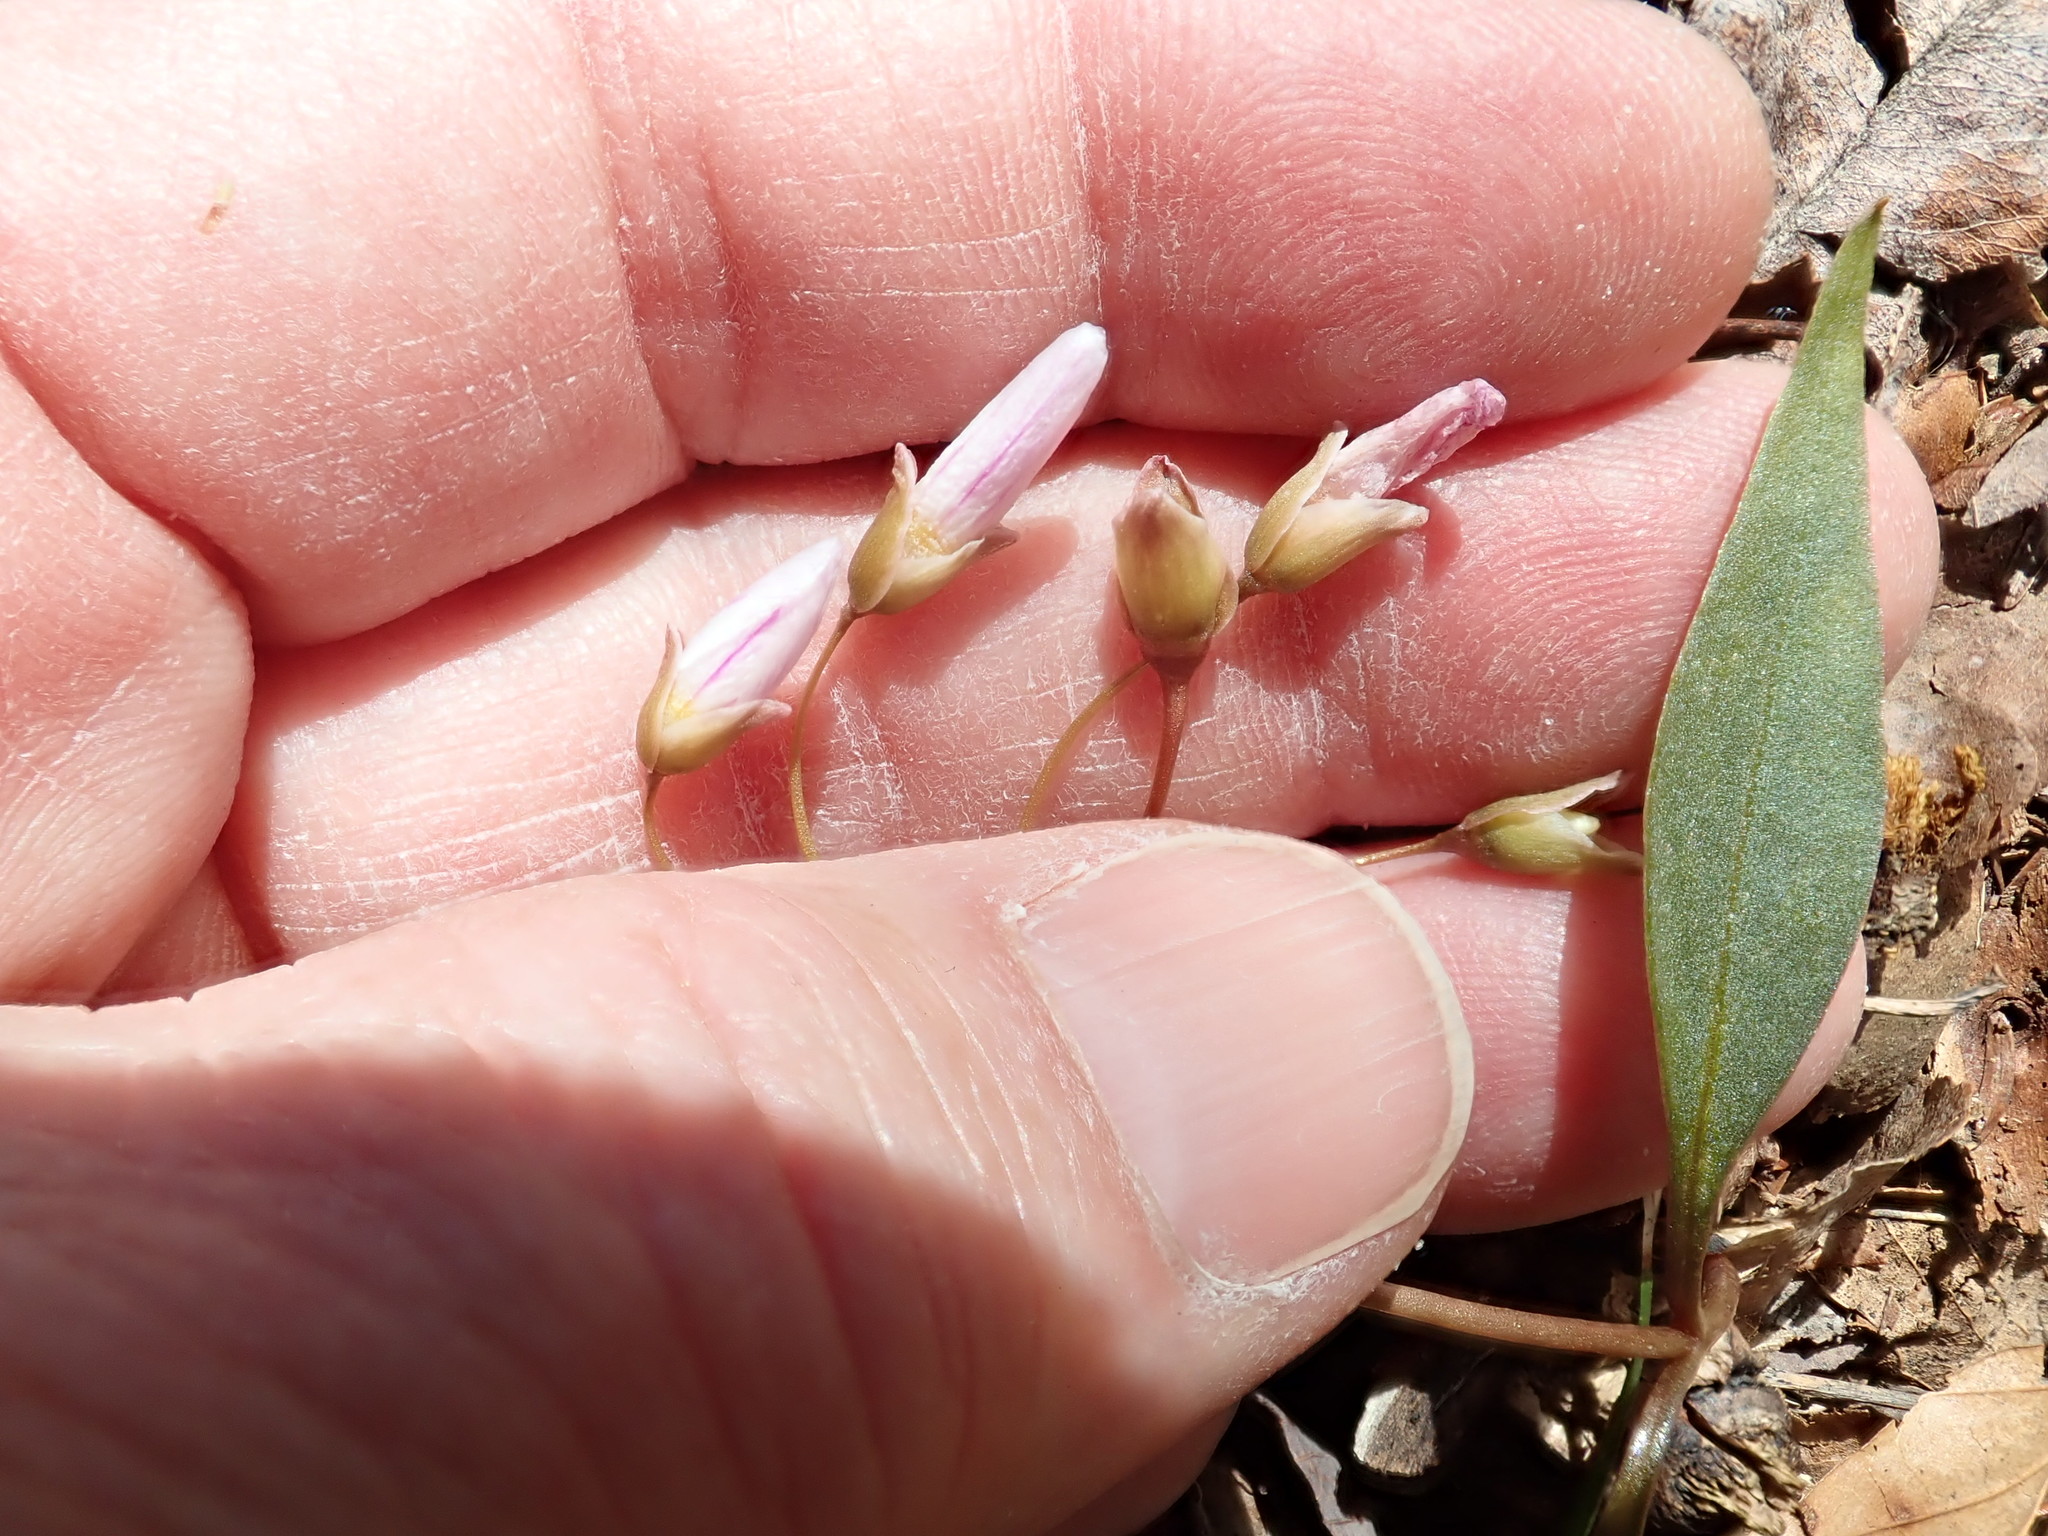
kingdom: Plantae
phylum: Tracheophyta
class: Magnoliopsida
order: Caryophyllales
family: Montiaceae
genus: Claytonia
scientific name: Claytonia caroliniana
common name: Carolina spring beauty
